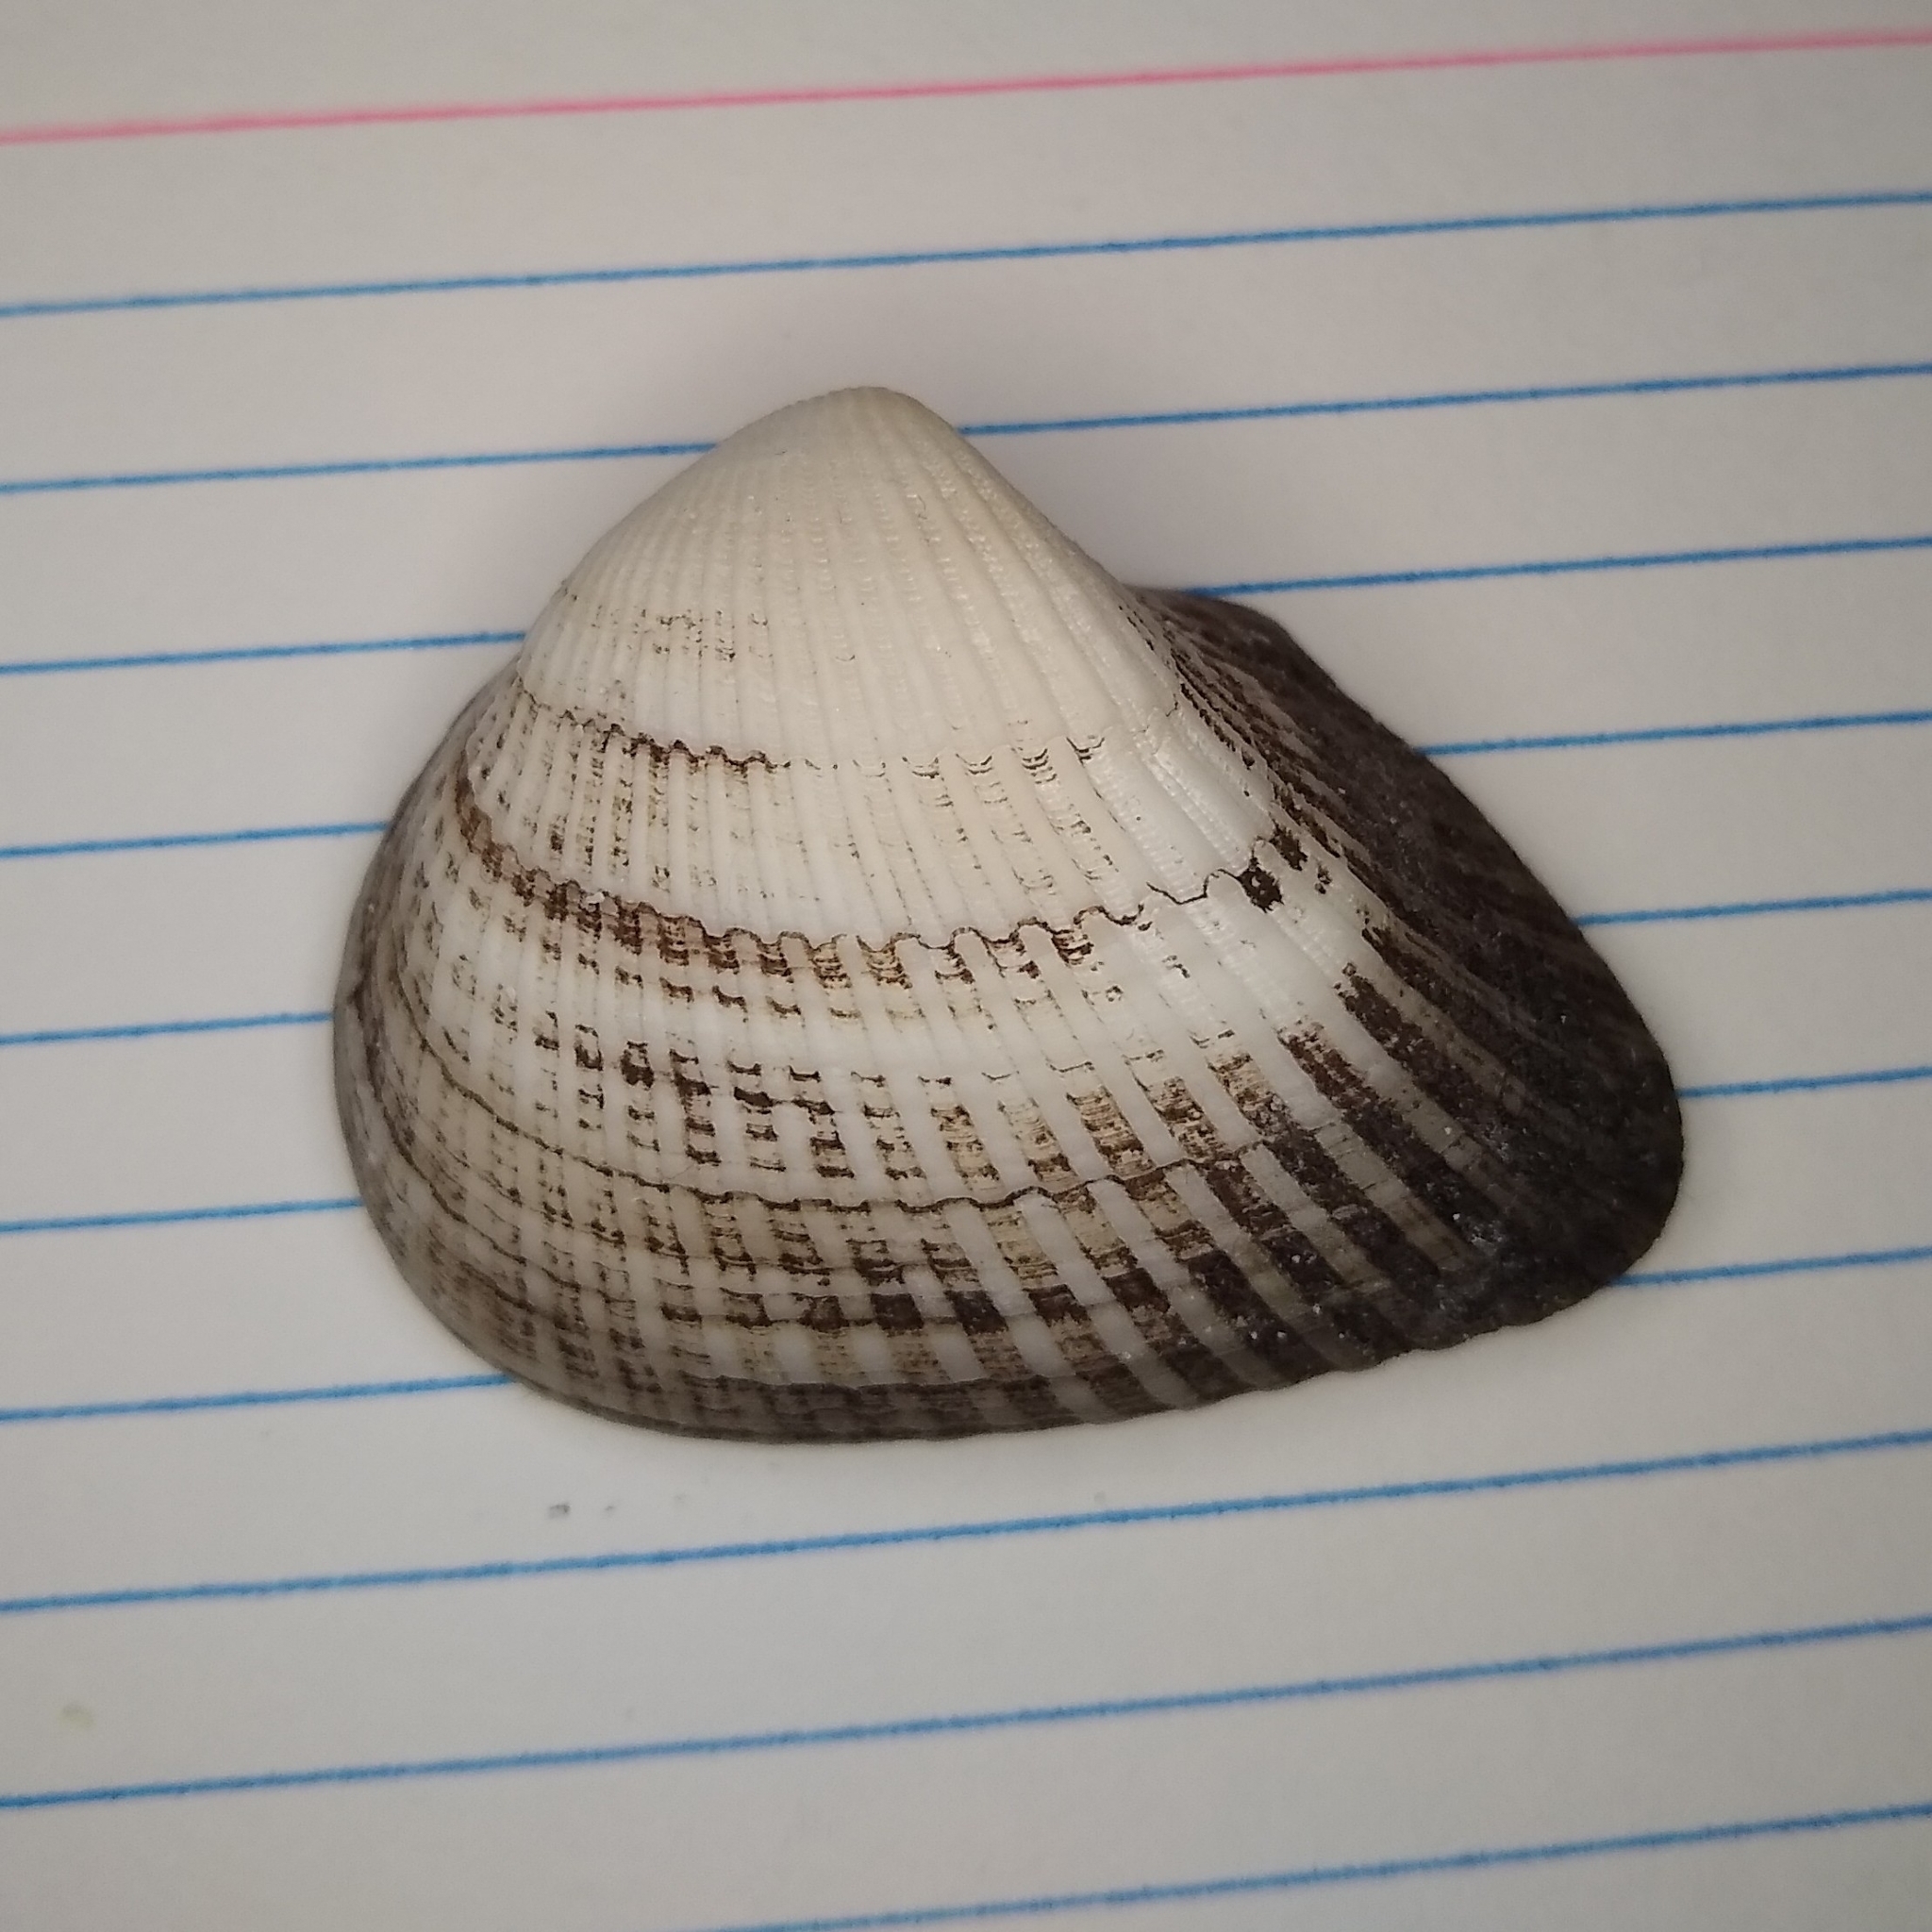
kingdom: Animalia
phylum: Mollusca
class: Bivalvia
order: Arcida
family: Noetiidae
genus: Noetia
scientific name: Noetia ponderosa
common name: Ponderous ark
